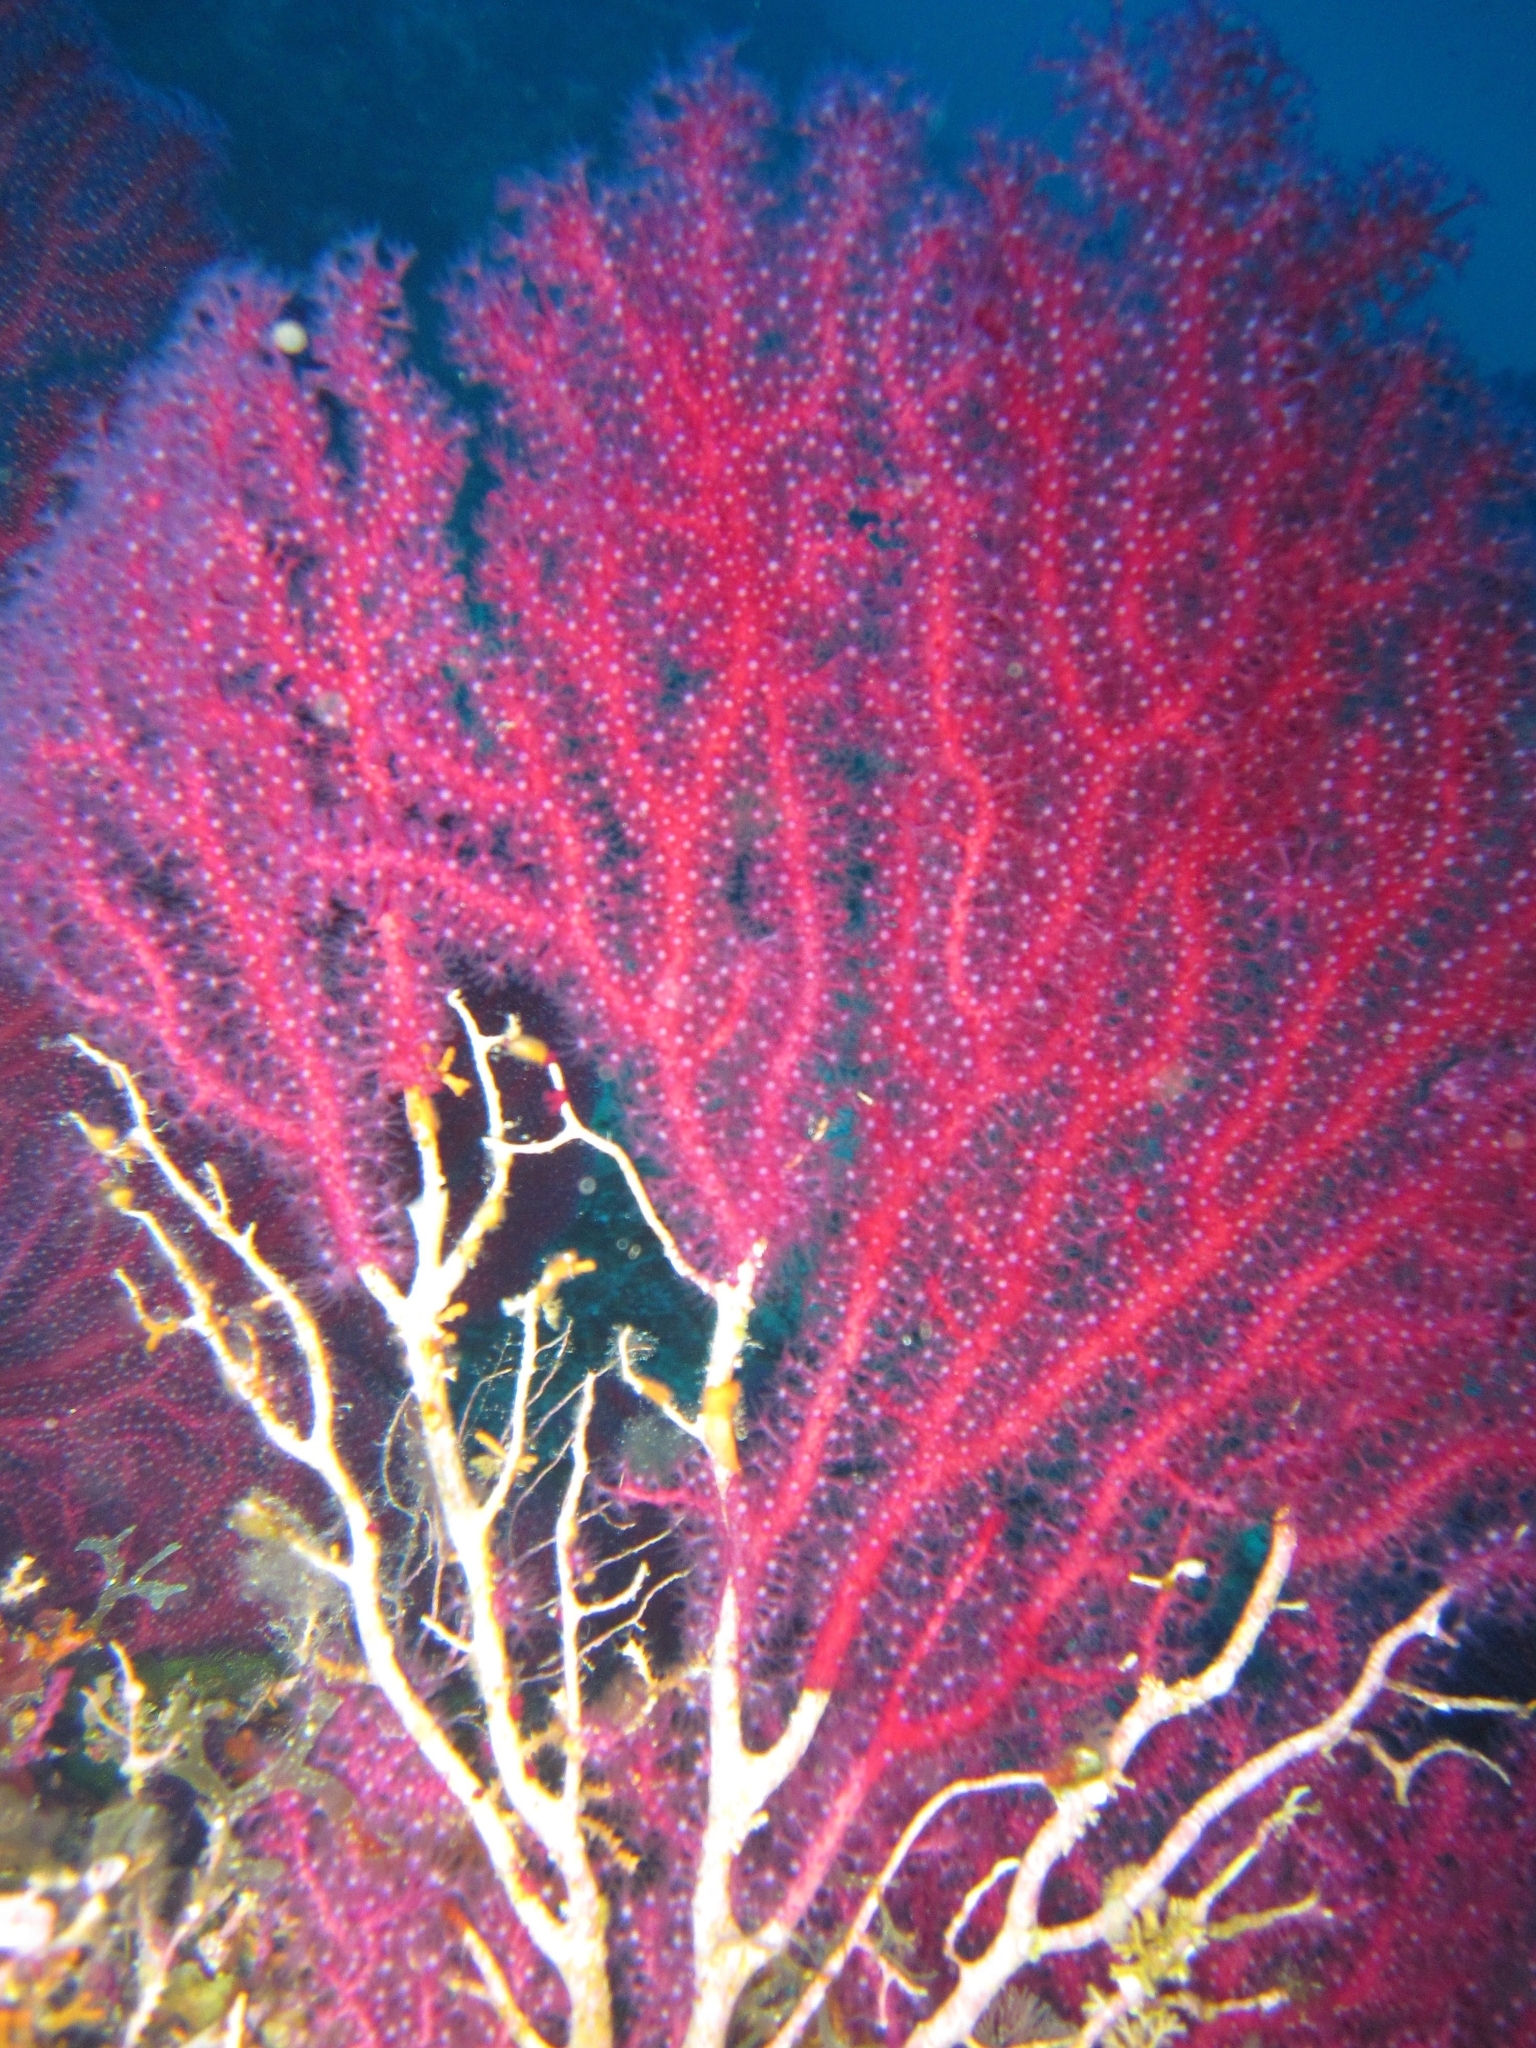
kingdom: Animalia
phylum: Cnidaria
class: Anthozoa
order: Malacalcyonacea
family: Paramuriceidae
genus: Paramuricea
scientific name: Paramuricea clavata
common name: Violescent sea-whip
